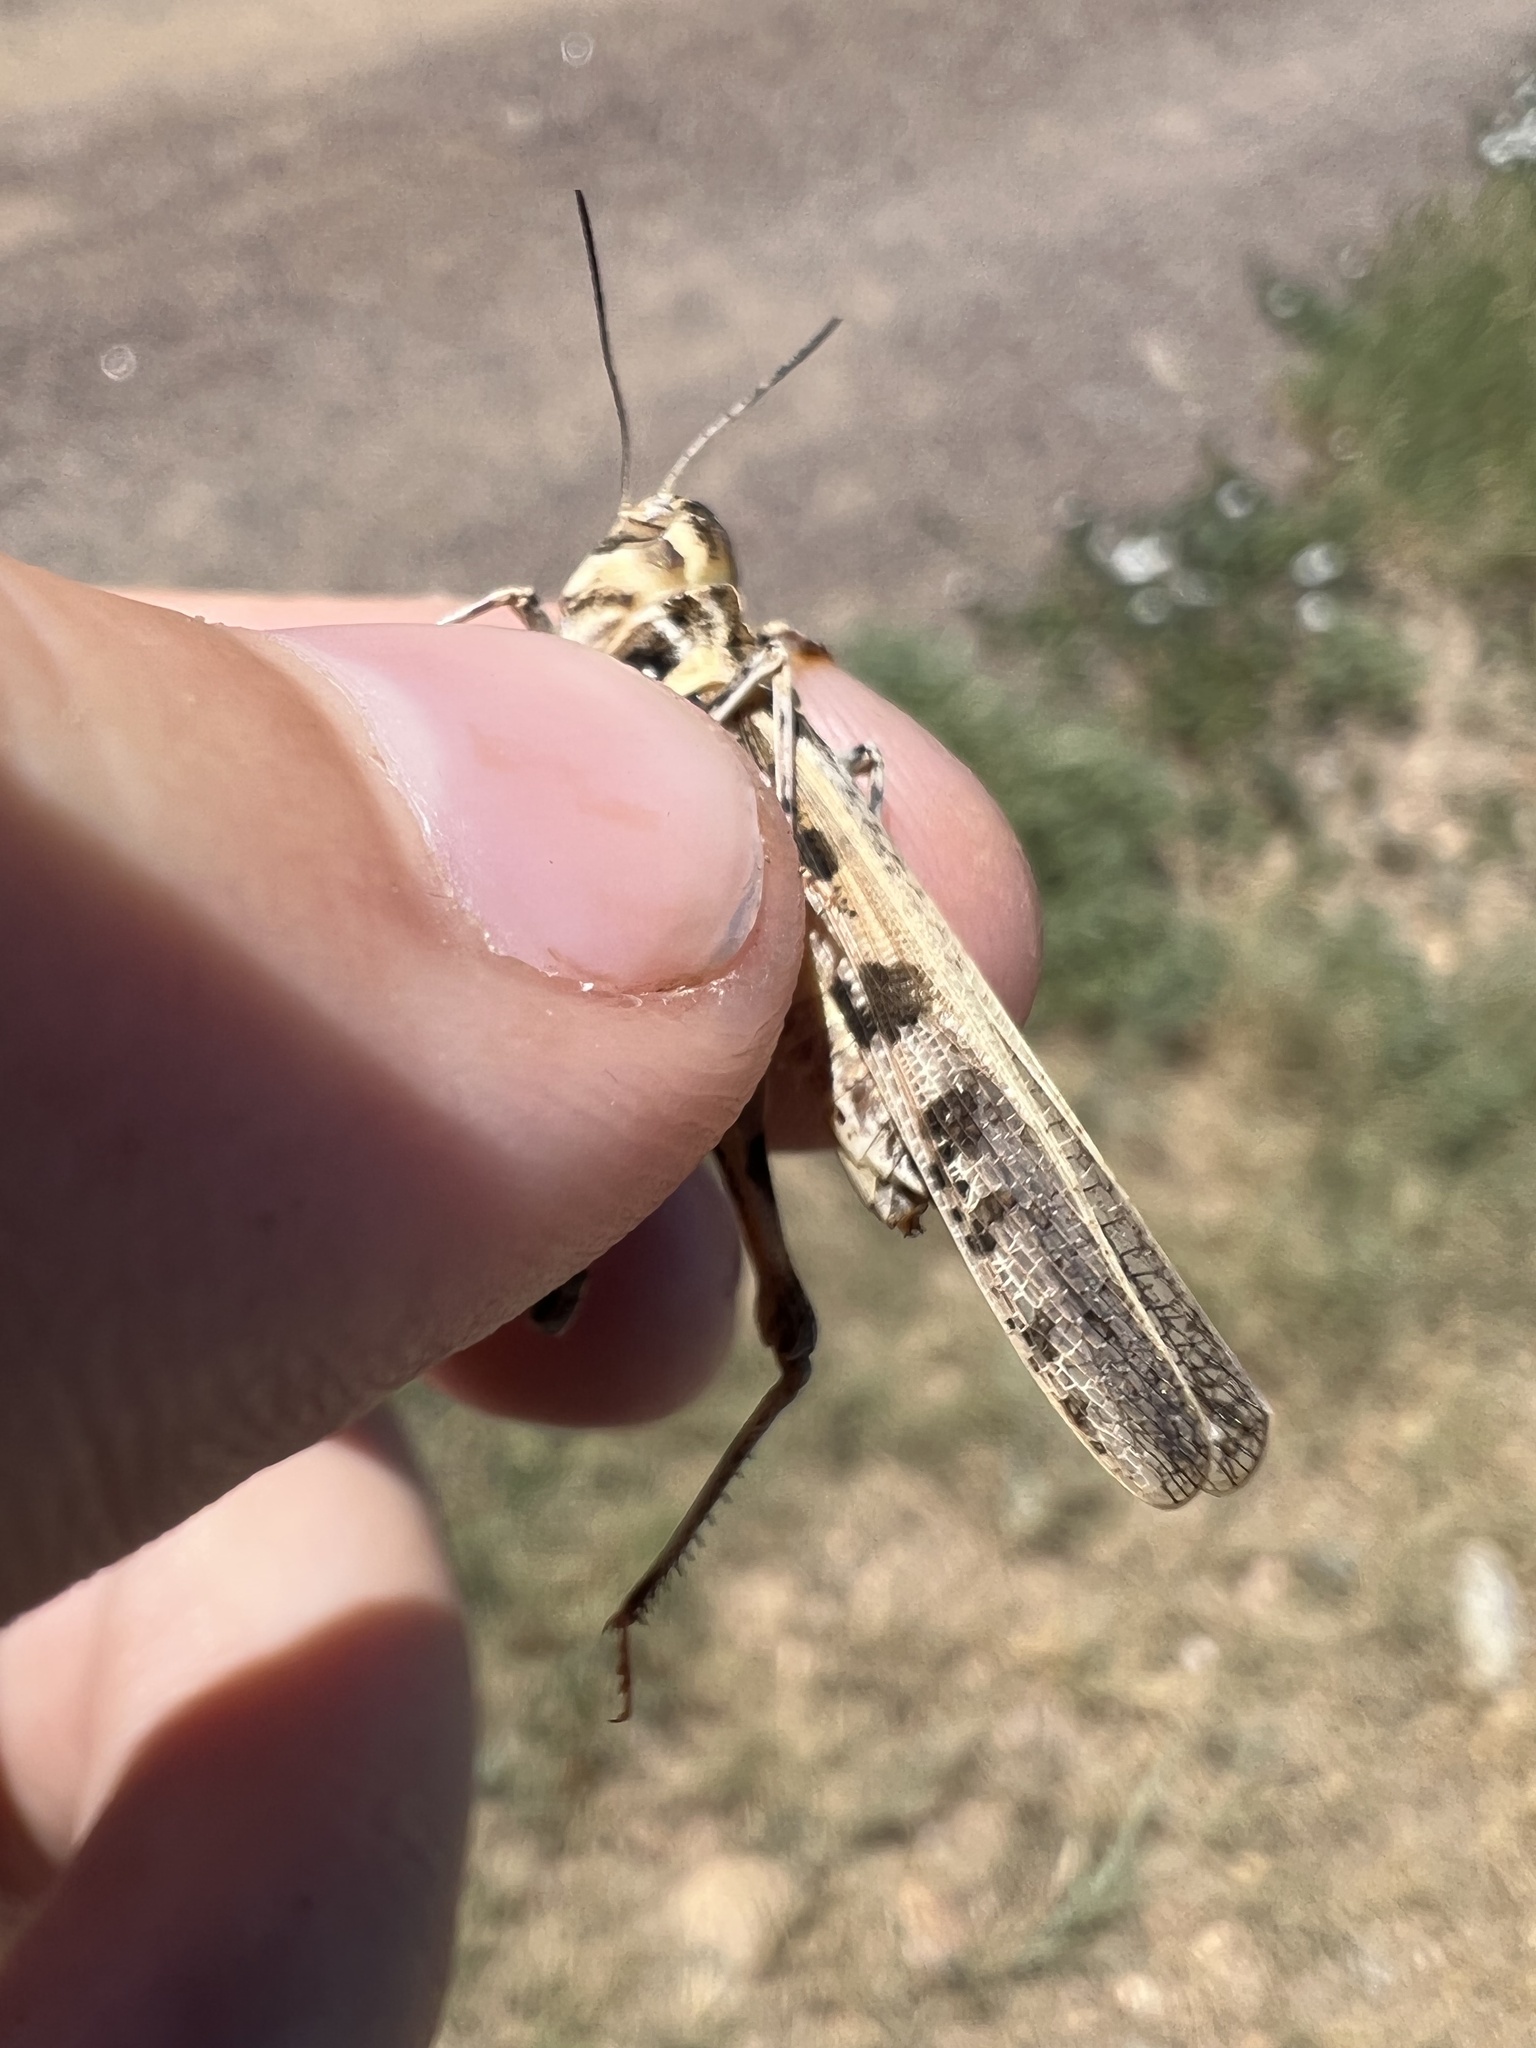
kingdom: Animalia
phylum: Arthropoda
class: Insecta
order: Orthoptera
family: Acrididae
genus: Trachyrhachys
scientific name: Trachyrhachys kiowa
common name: Kiowa grasshopper
